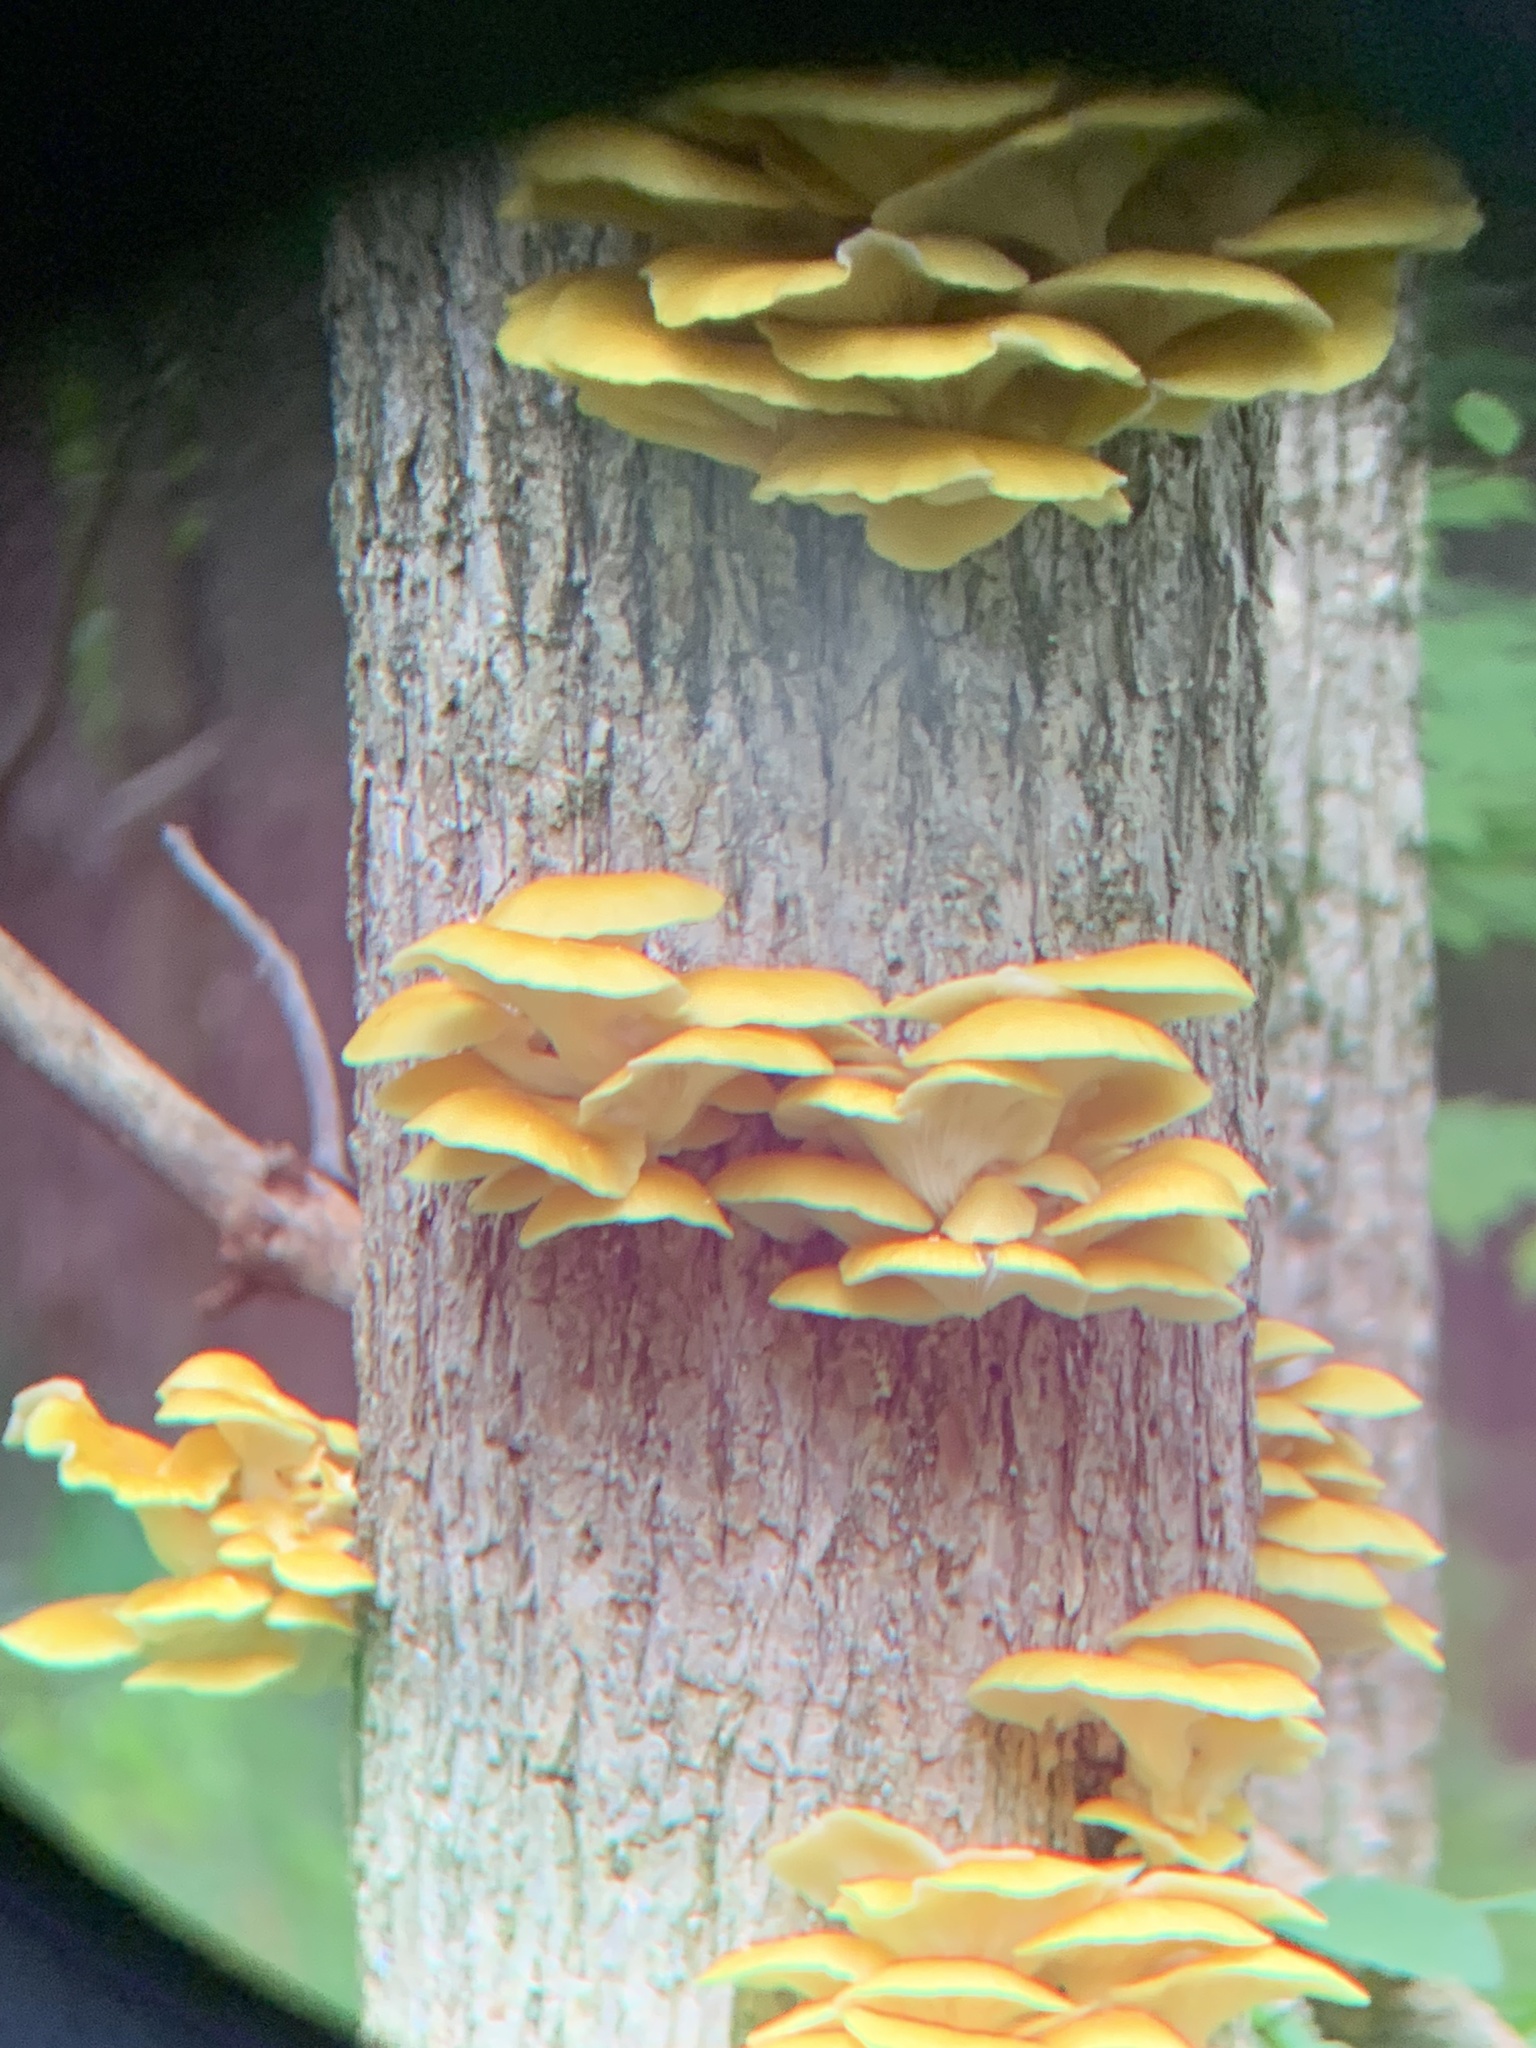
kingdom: Fungi
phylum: Basidiomycota
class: Agaricomycetes
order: Agaricales
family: Pleurotaceae
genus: Pleurotus
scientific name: Pleurotus citrinopileatus
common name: Golden oyster mushroom
